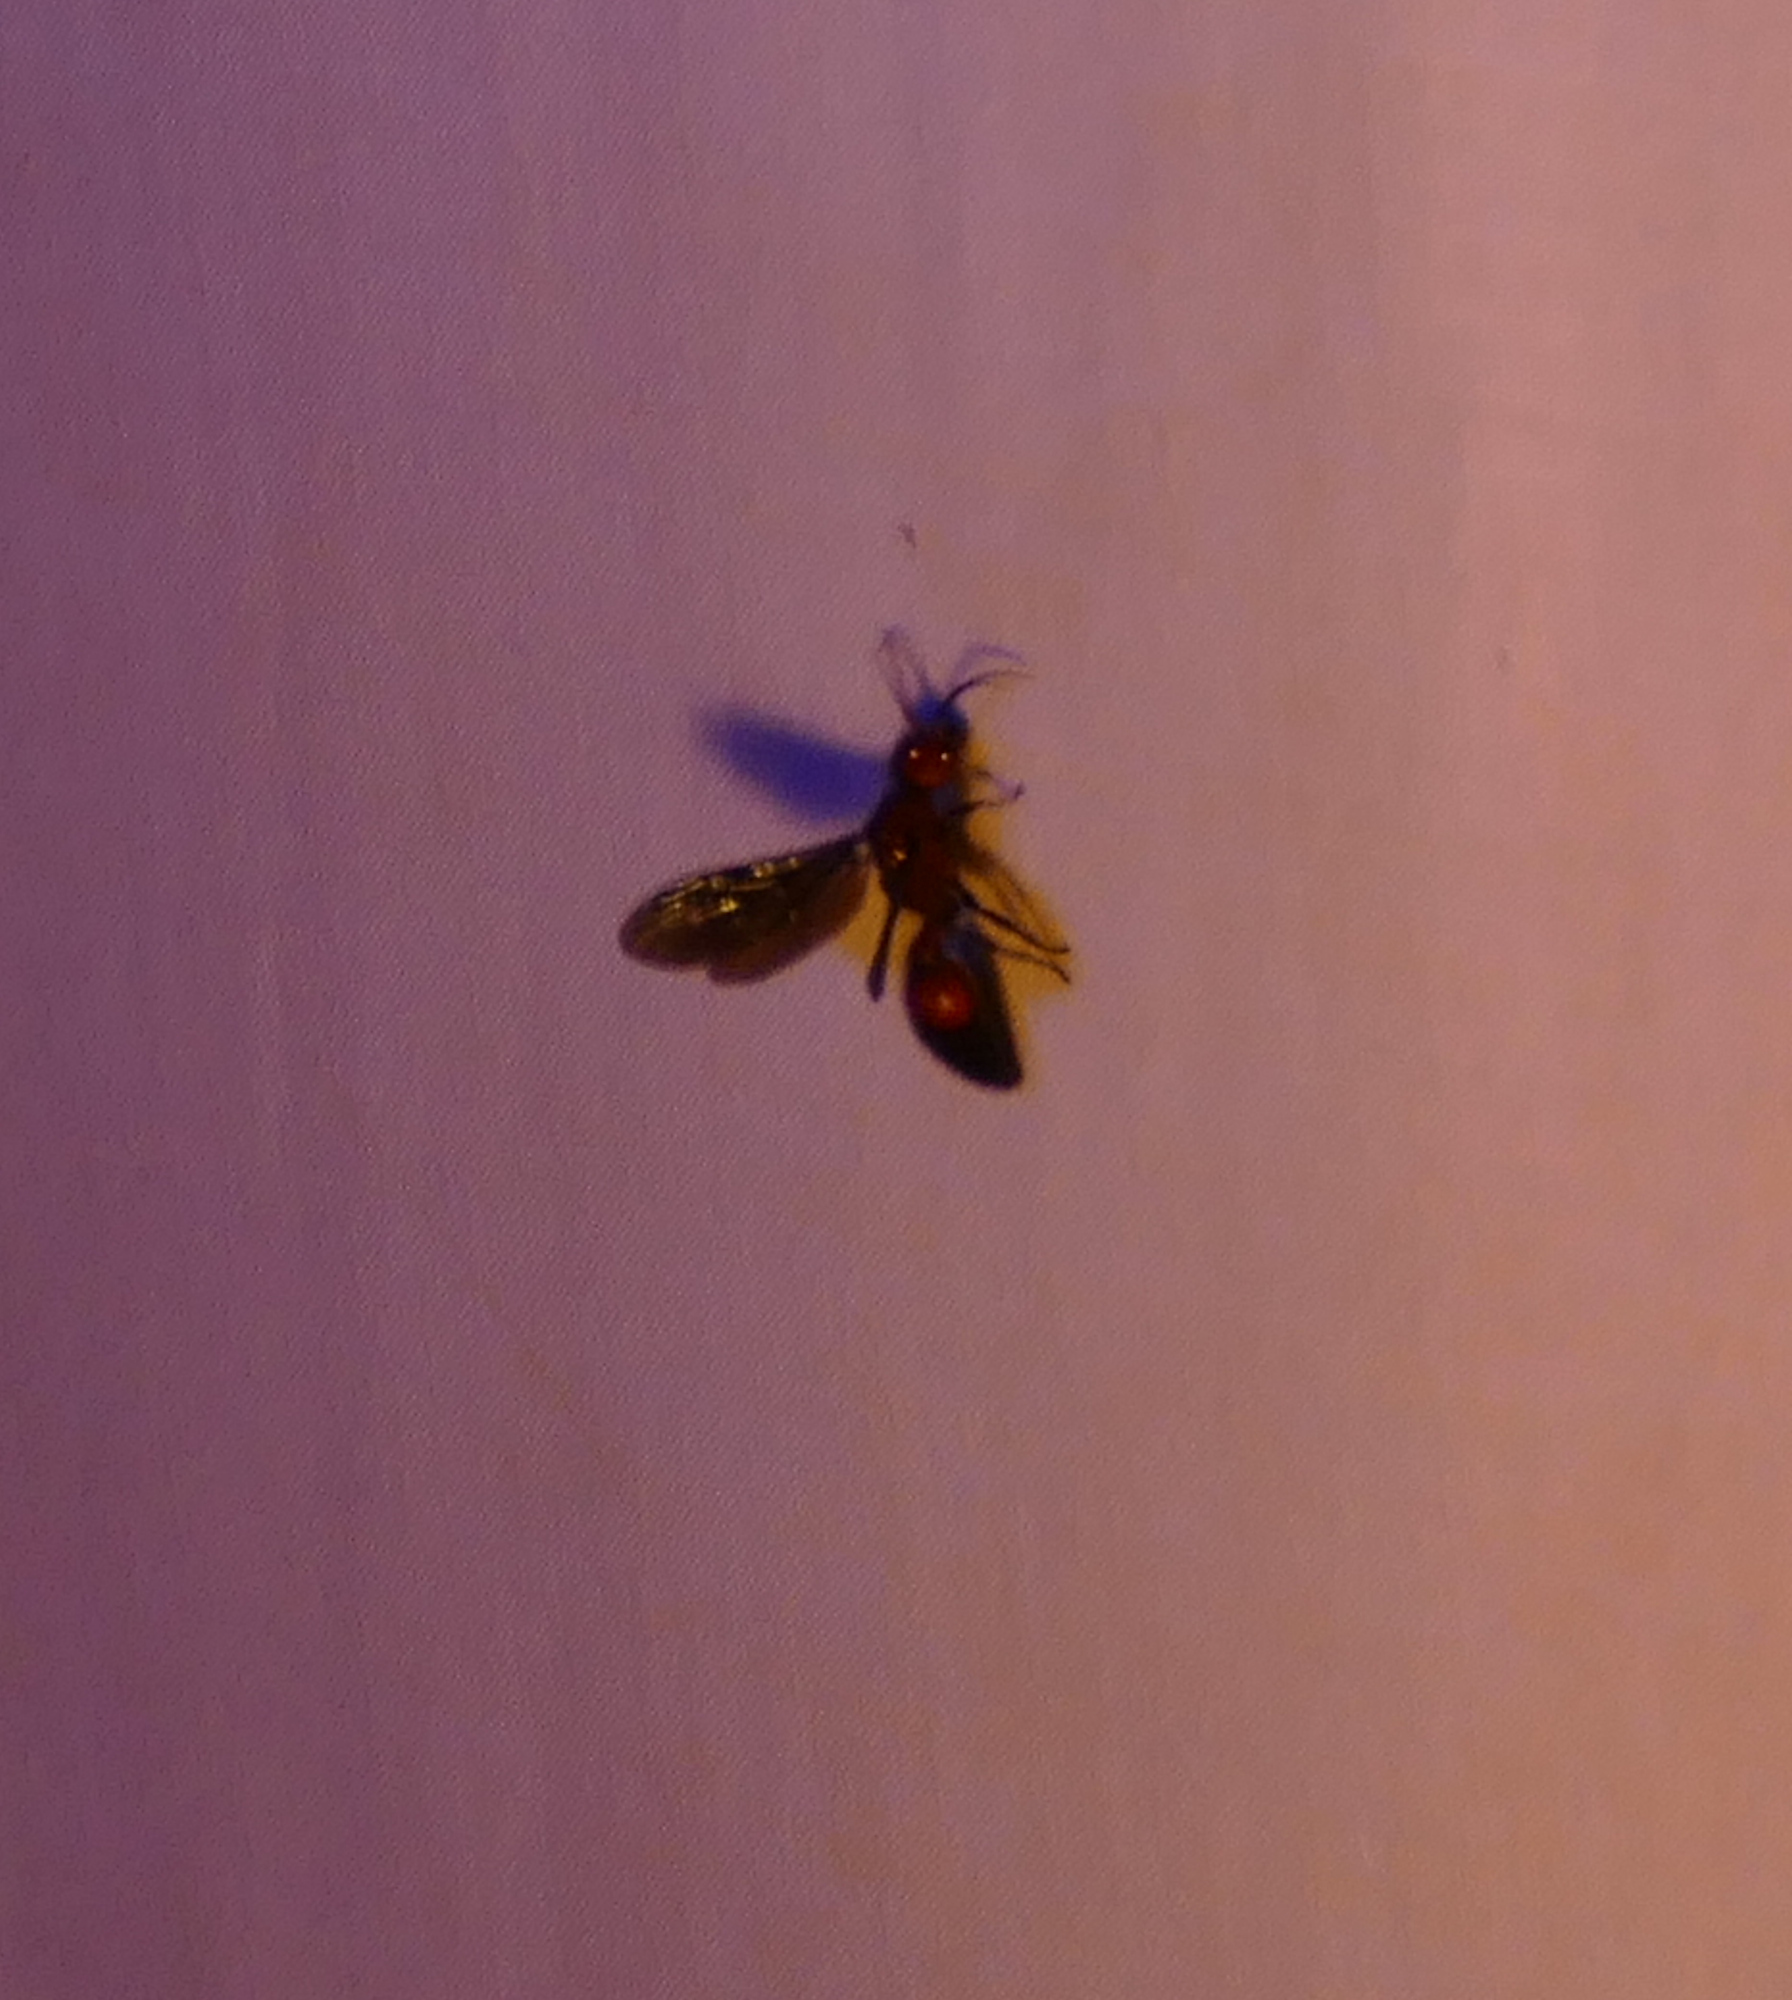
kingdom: Animalia
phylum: Arthropoda
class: Insecta
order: Hymenoptera
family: Mutillidae
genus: Sphaeropthalma
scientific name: Sphaeropthalma
